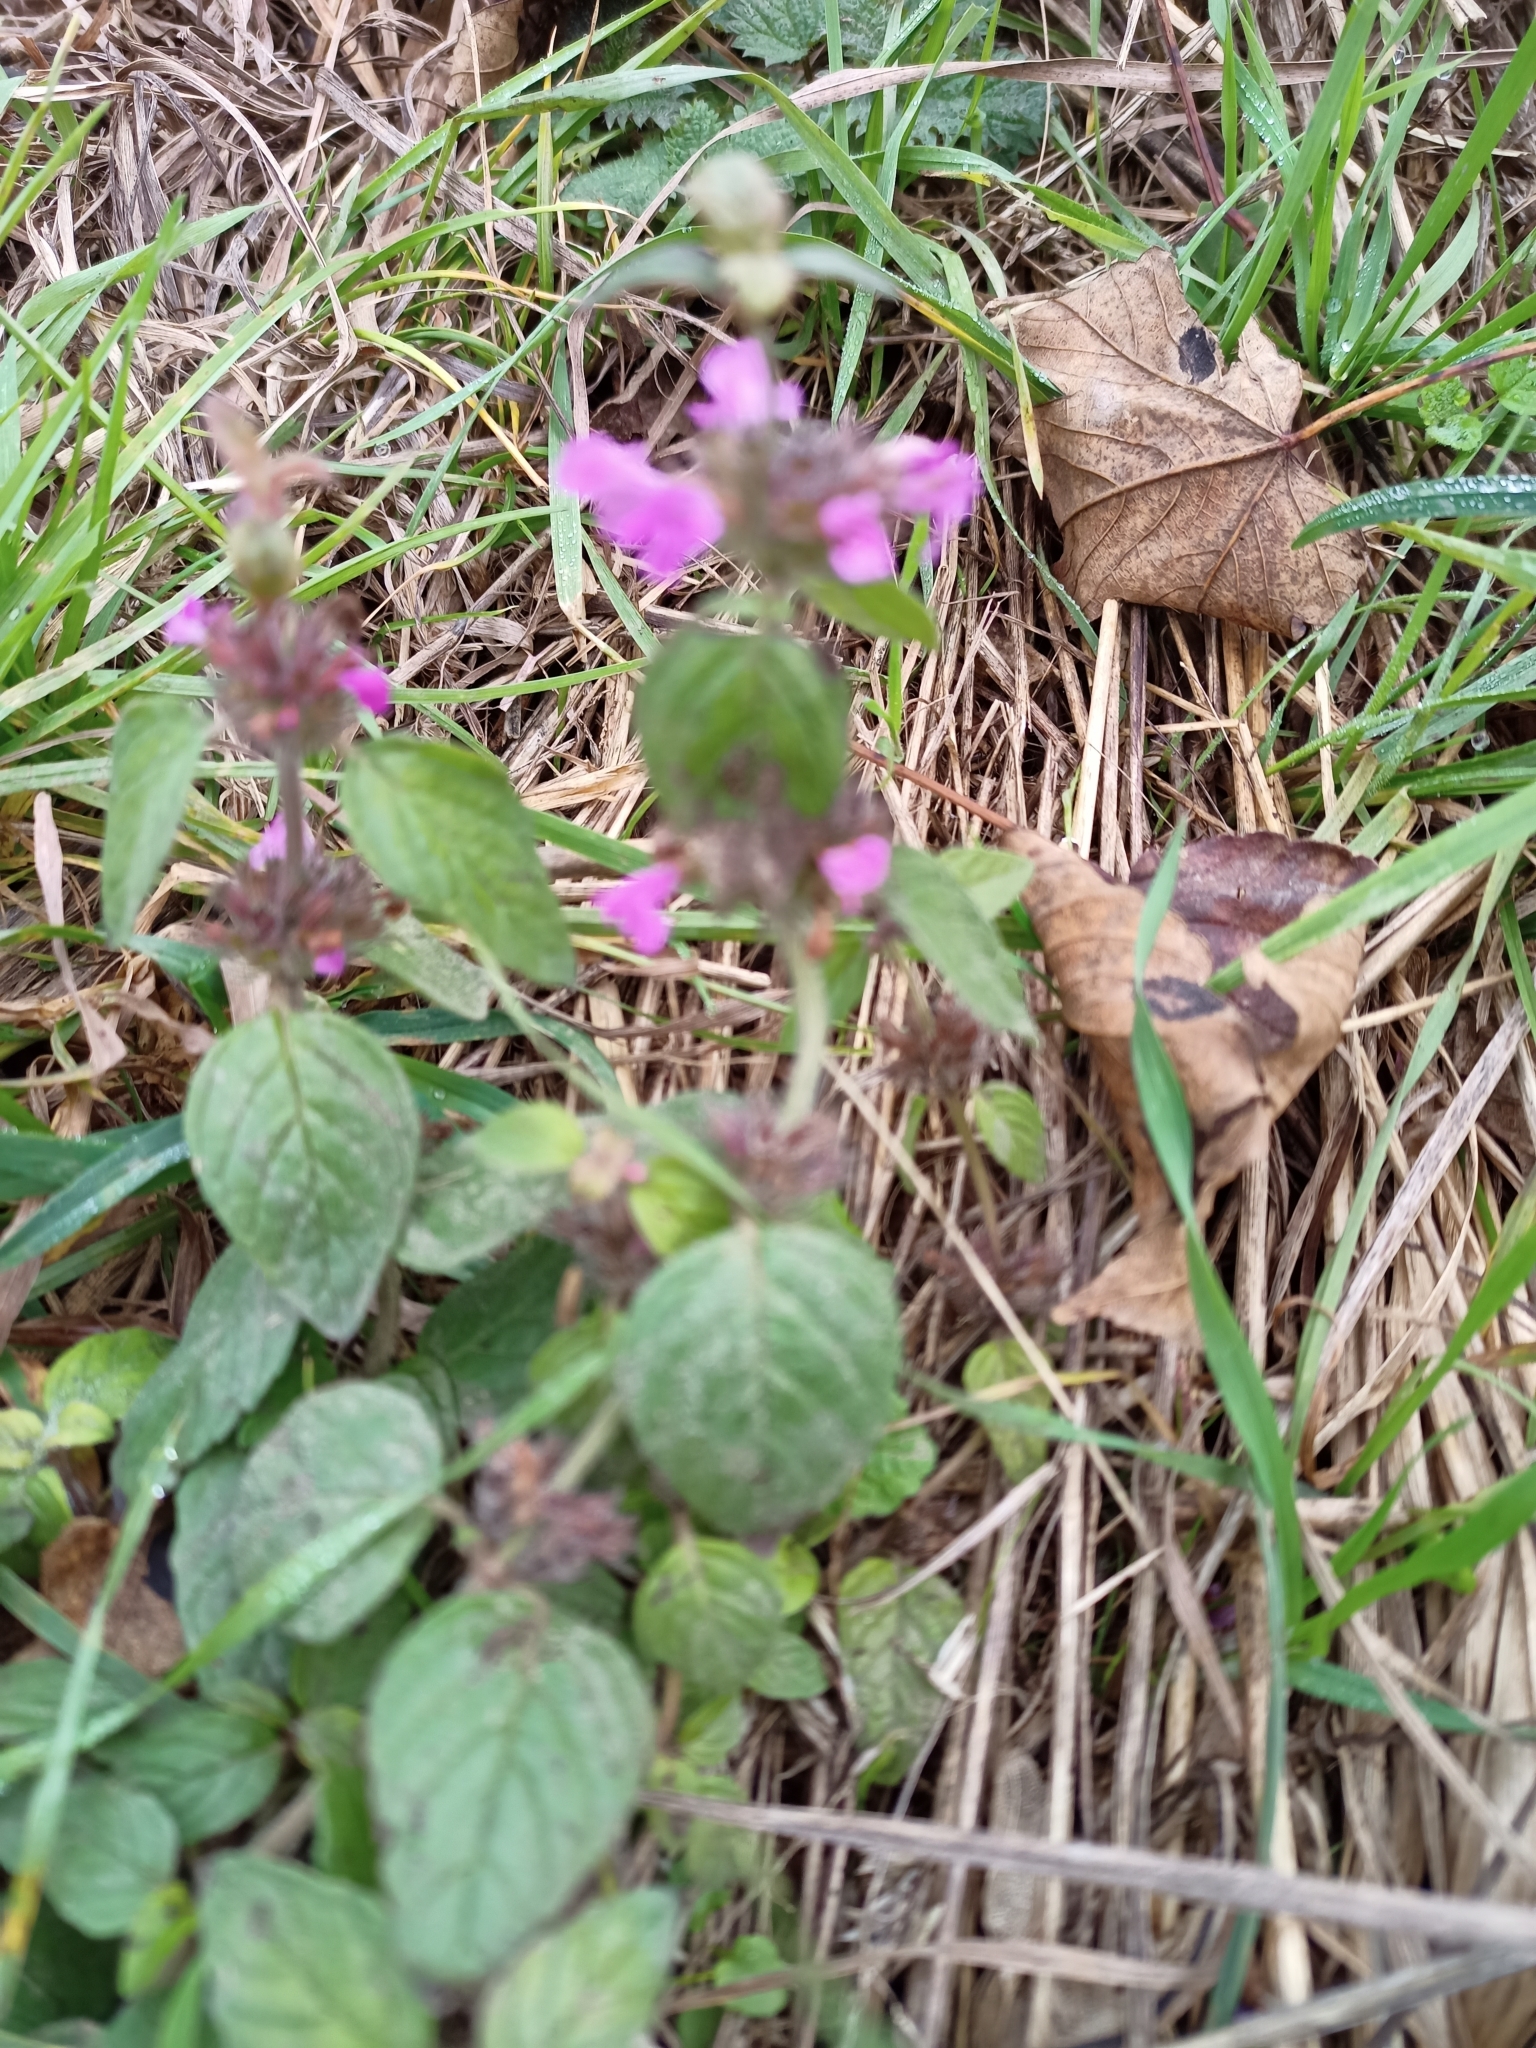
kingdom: Plantae
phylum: Tracheophyta
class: Magnoliopsida
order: Lamiales
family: Lamiaceae
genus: Clinopodium
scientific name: Clinopodium vulgare
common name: Wild basil
